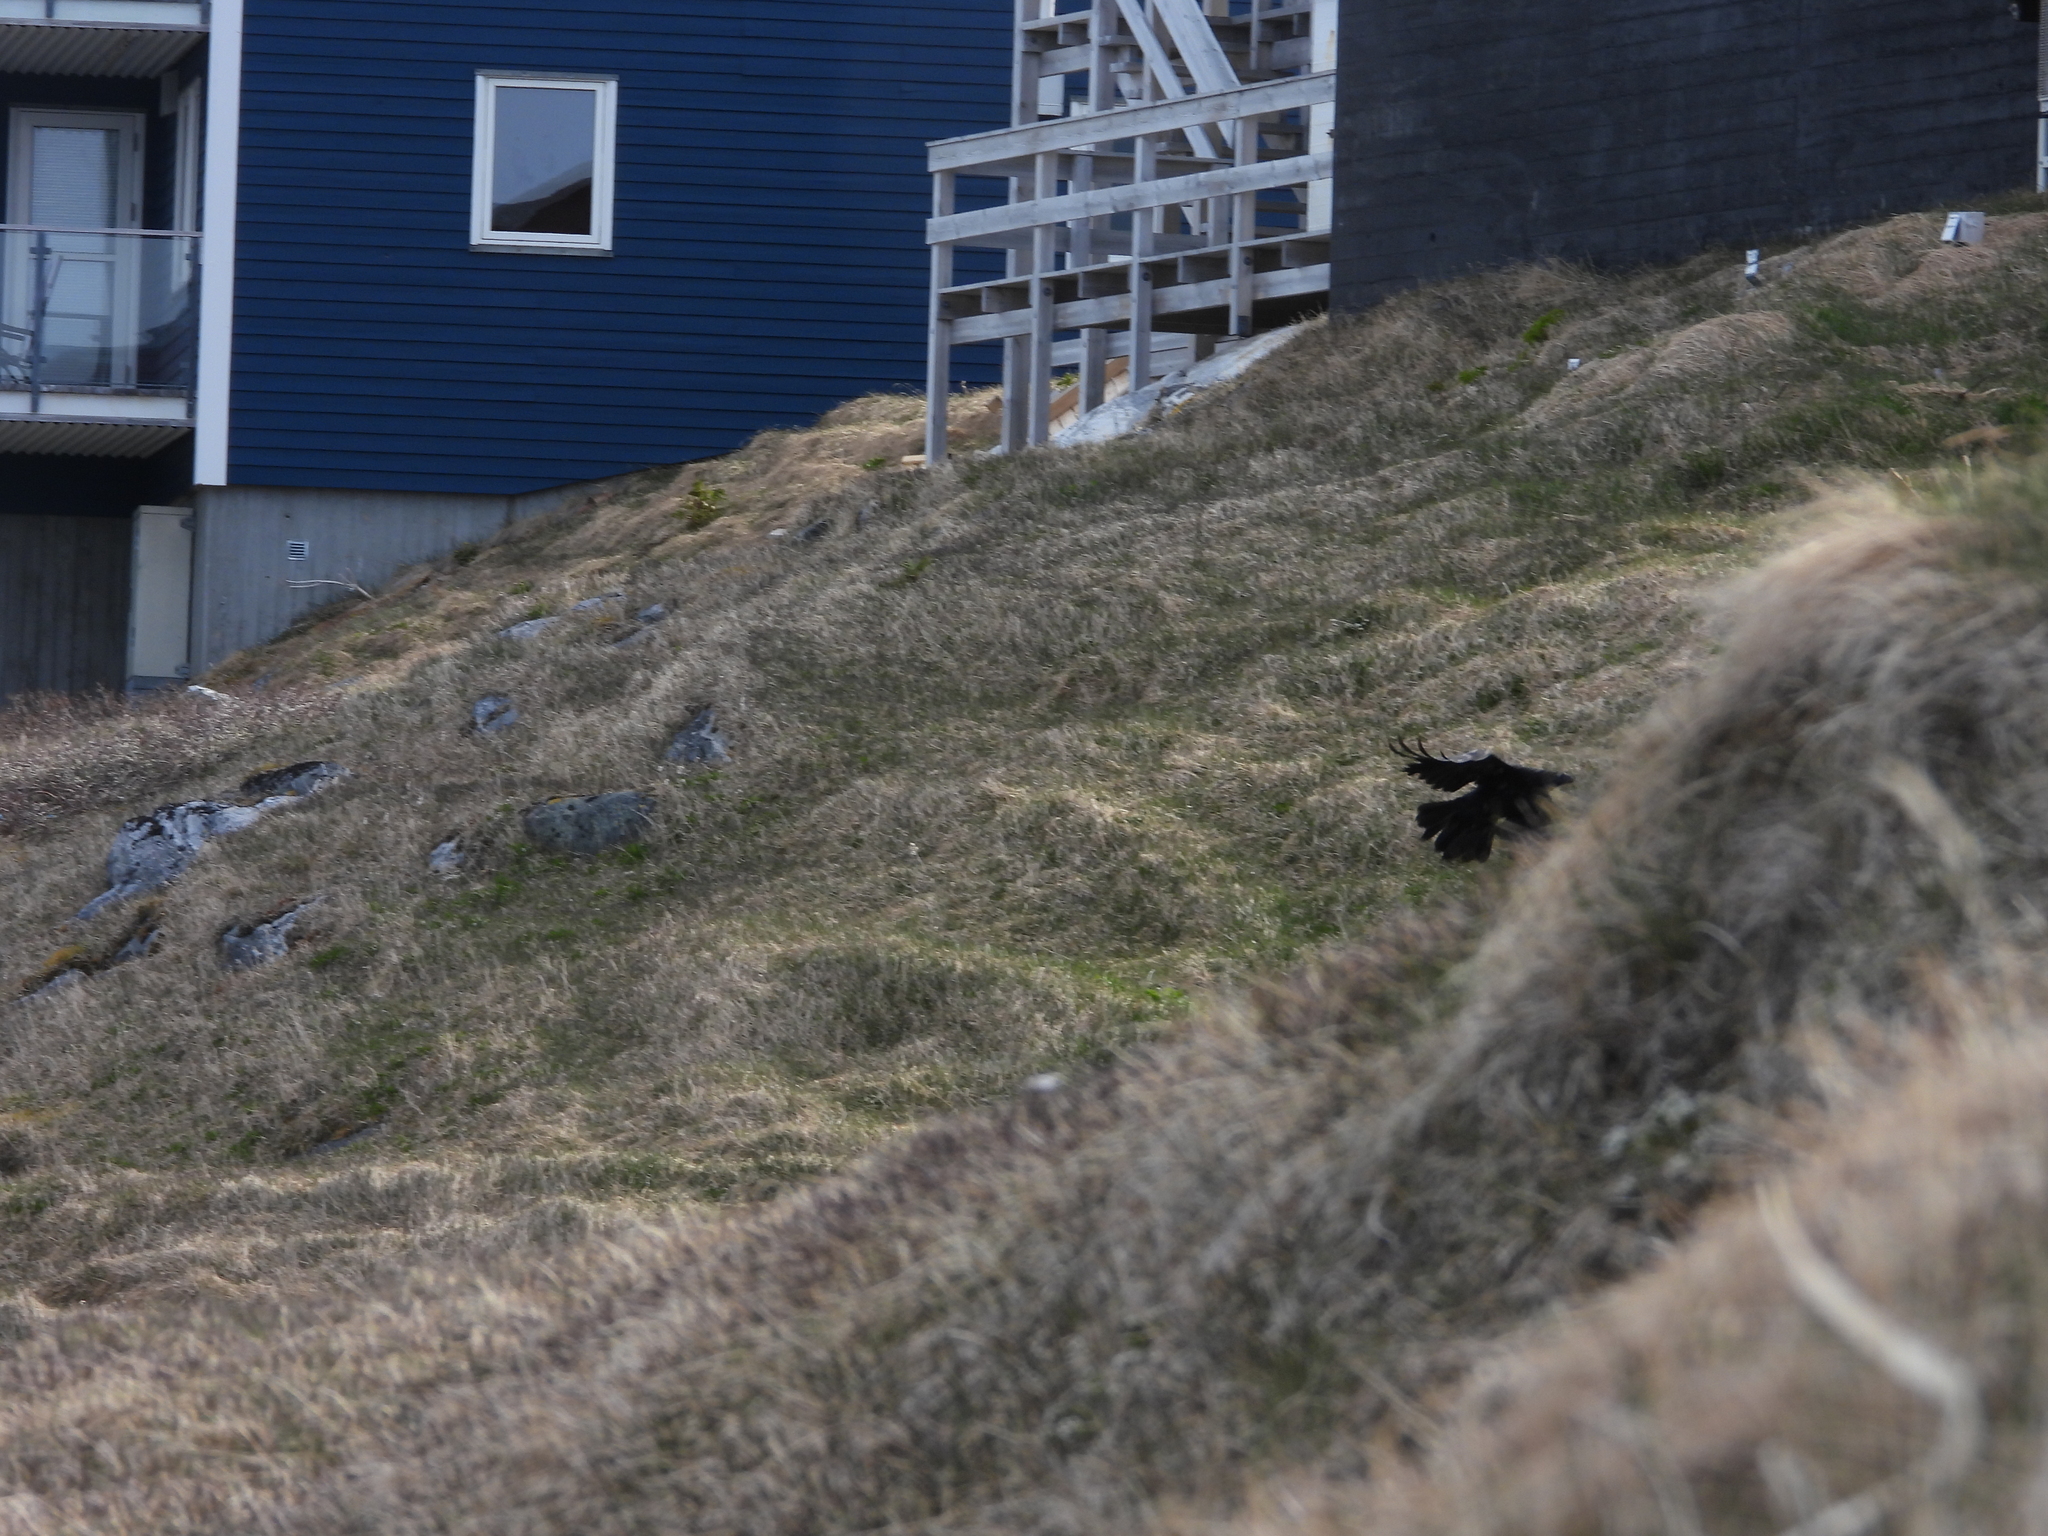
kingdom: Animalia
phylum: Chordata
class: Aves
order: Passeriformes
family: Corvidae
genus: Corvus
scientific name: Corvus corax
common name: Common raven
